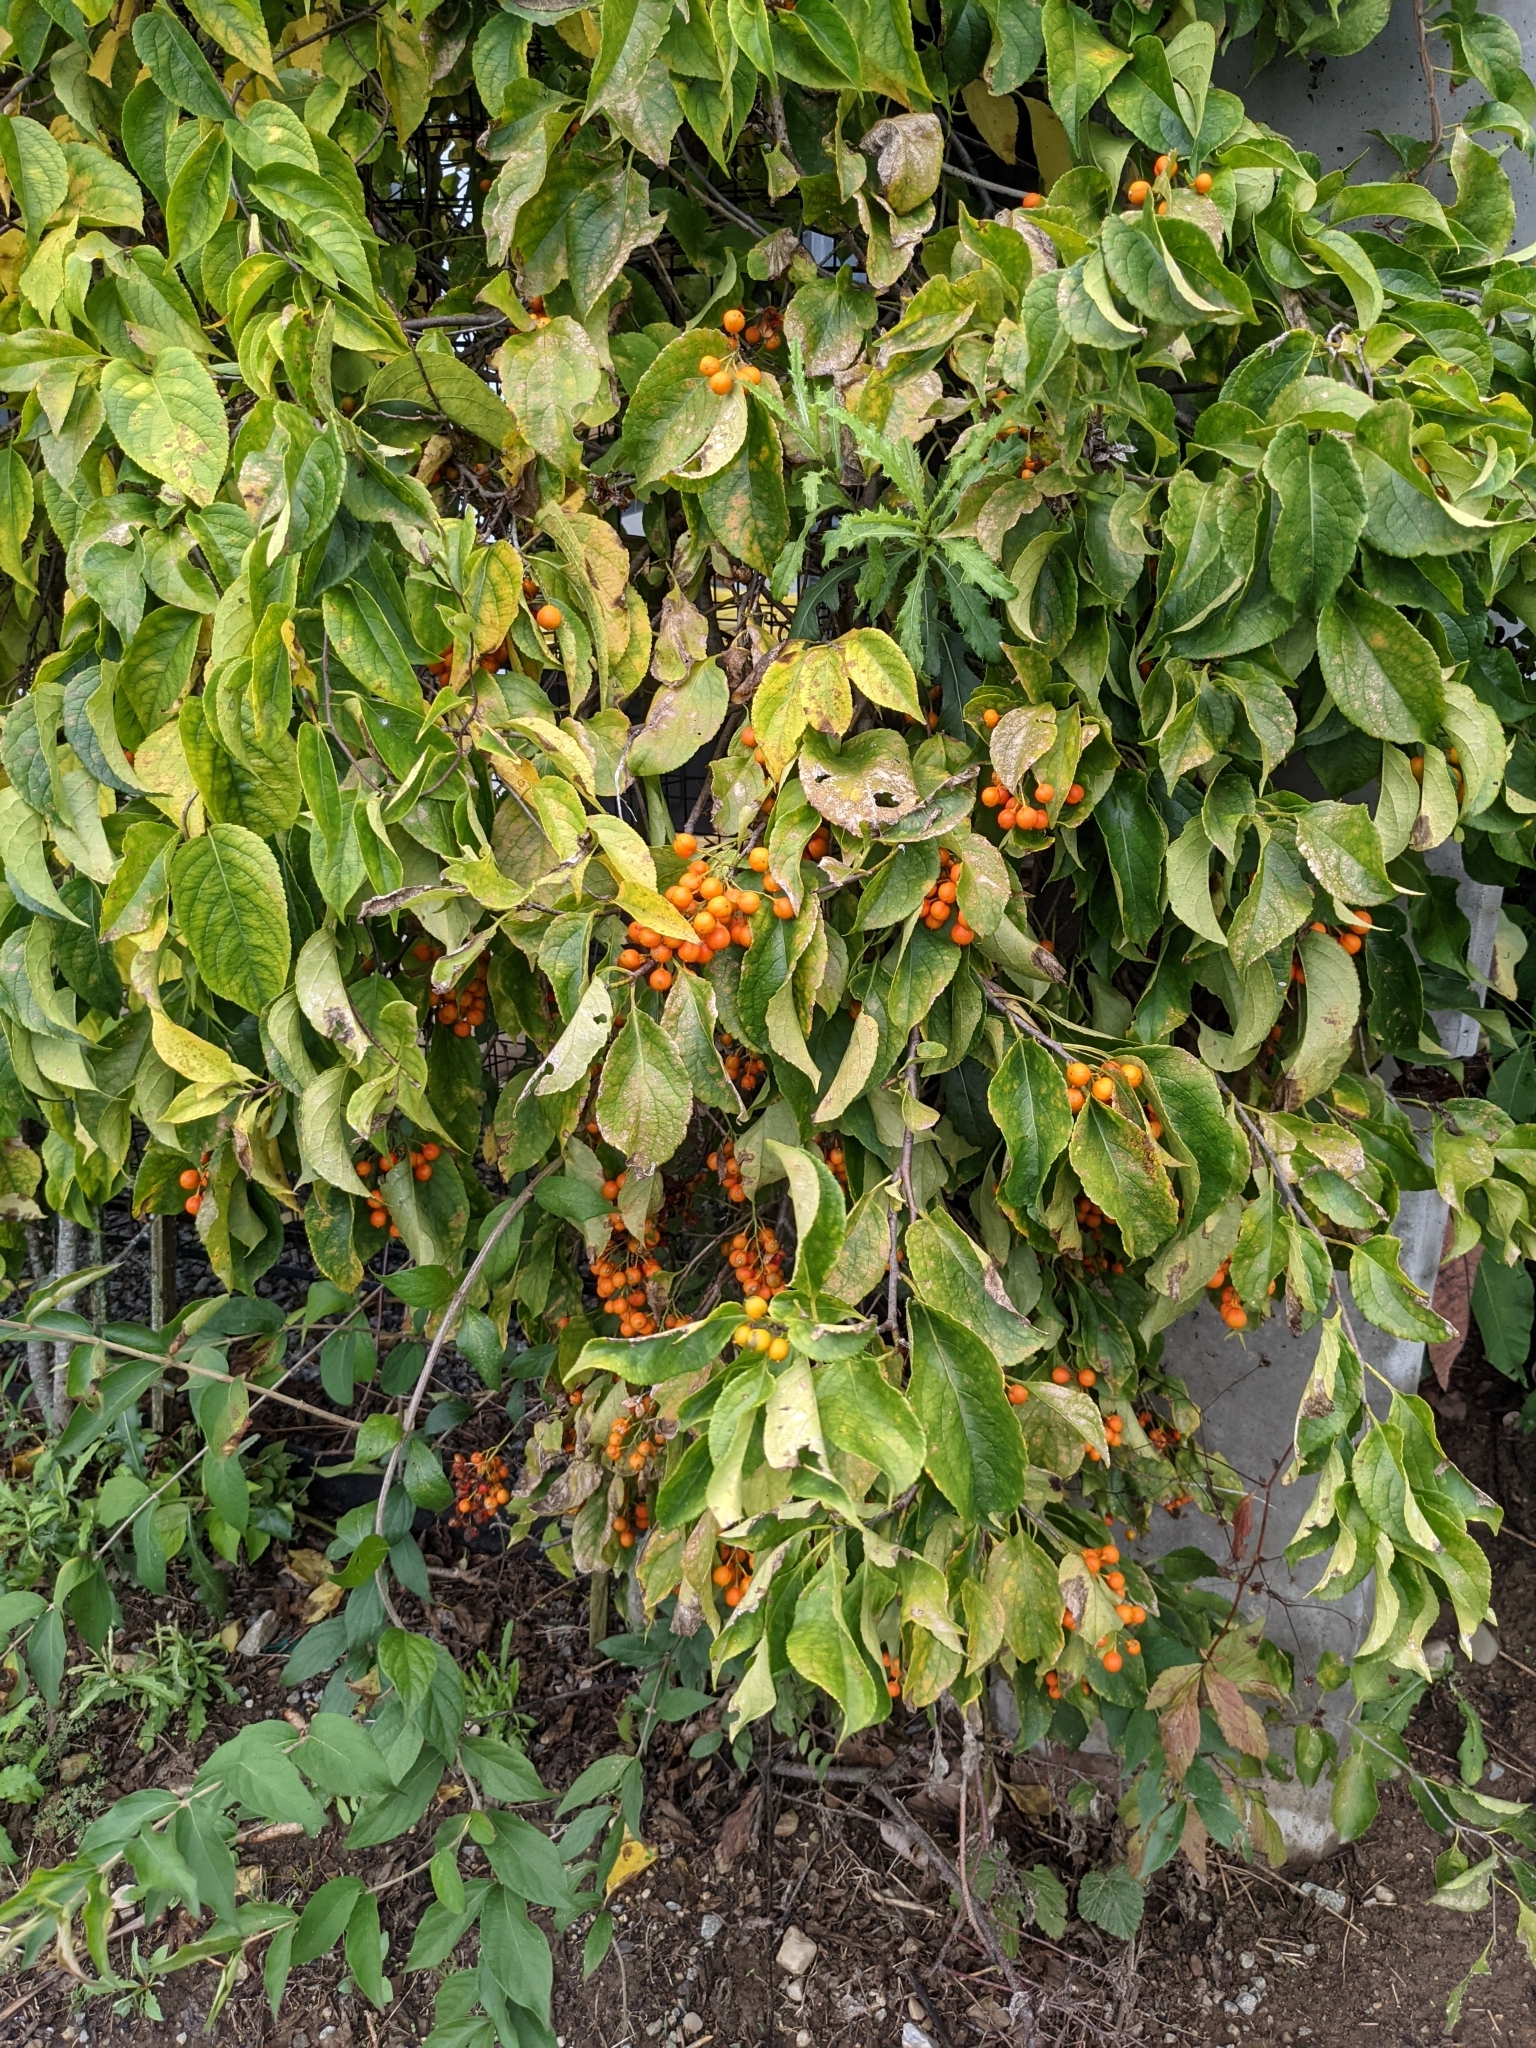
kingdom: Plantae
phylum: Tracheophyta
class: Magnoliopsida
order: Celastrales
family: Celastraceae
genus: Celastrus
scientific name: Celastrus scandens
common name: American bittersweet
